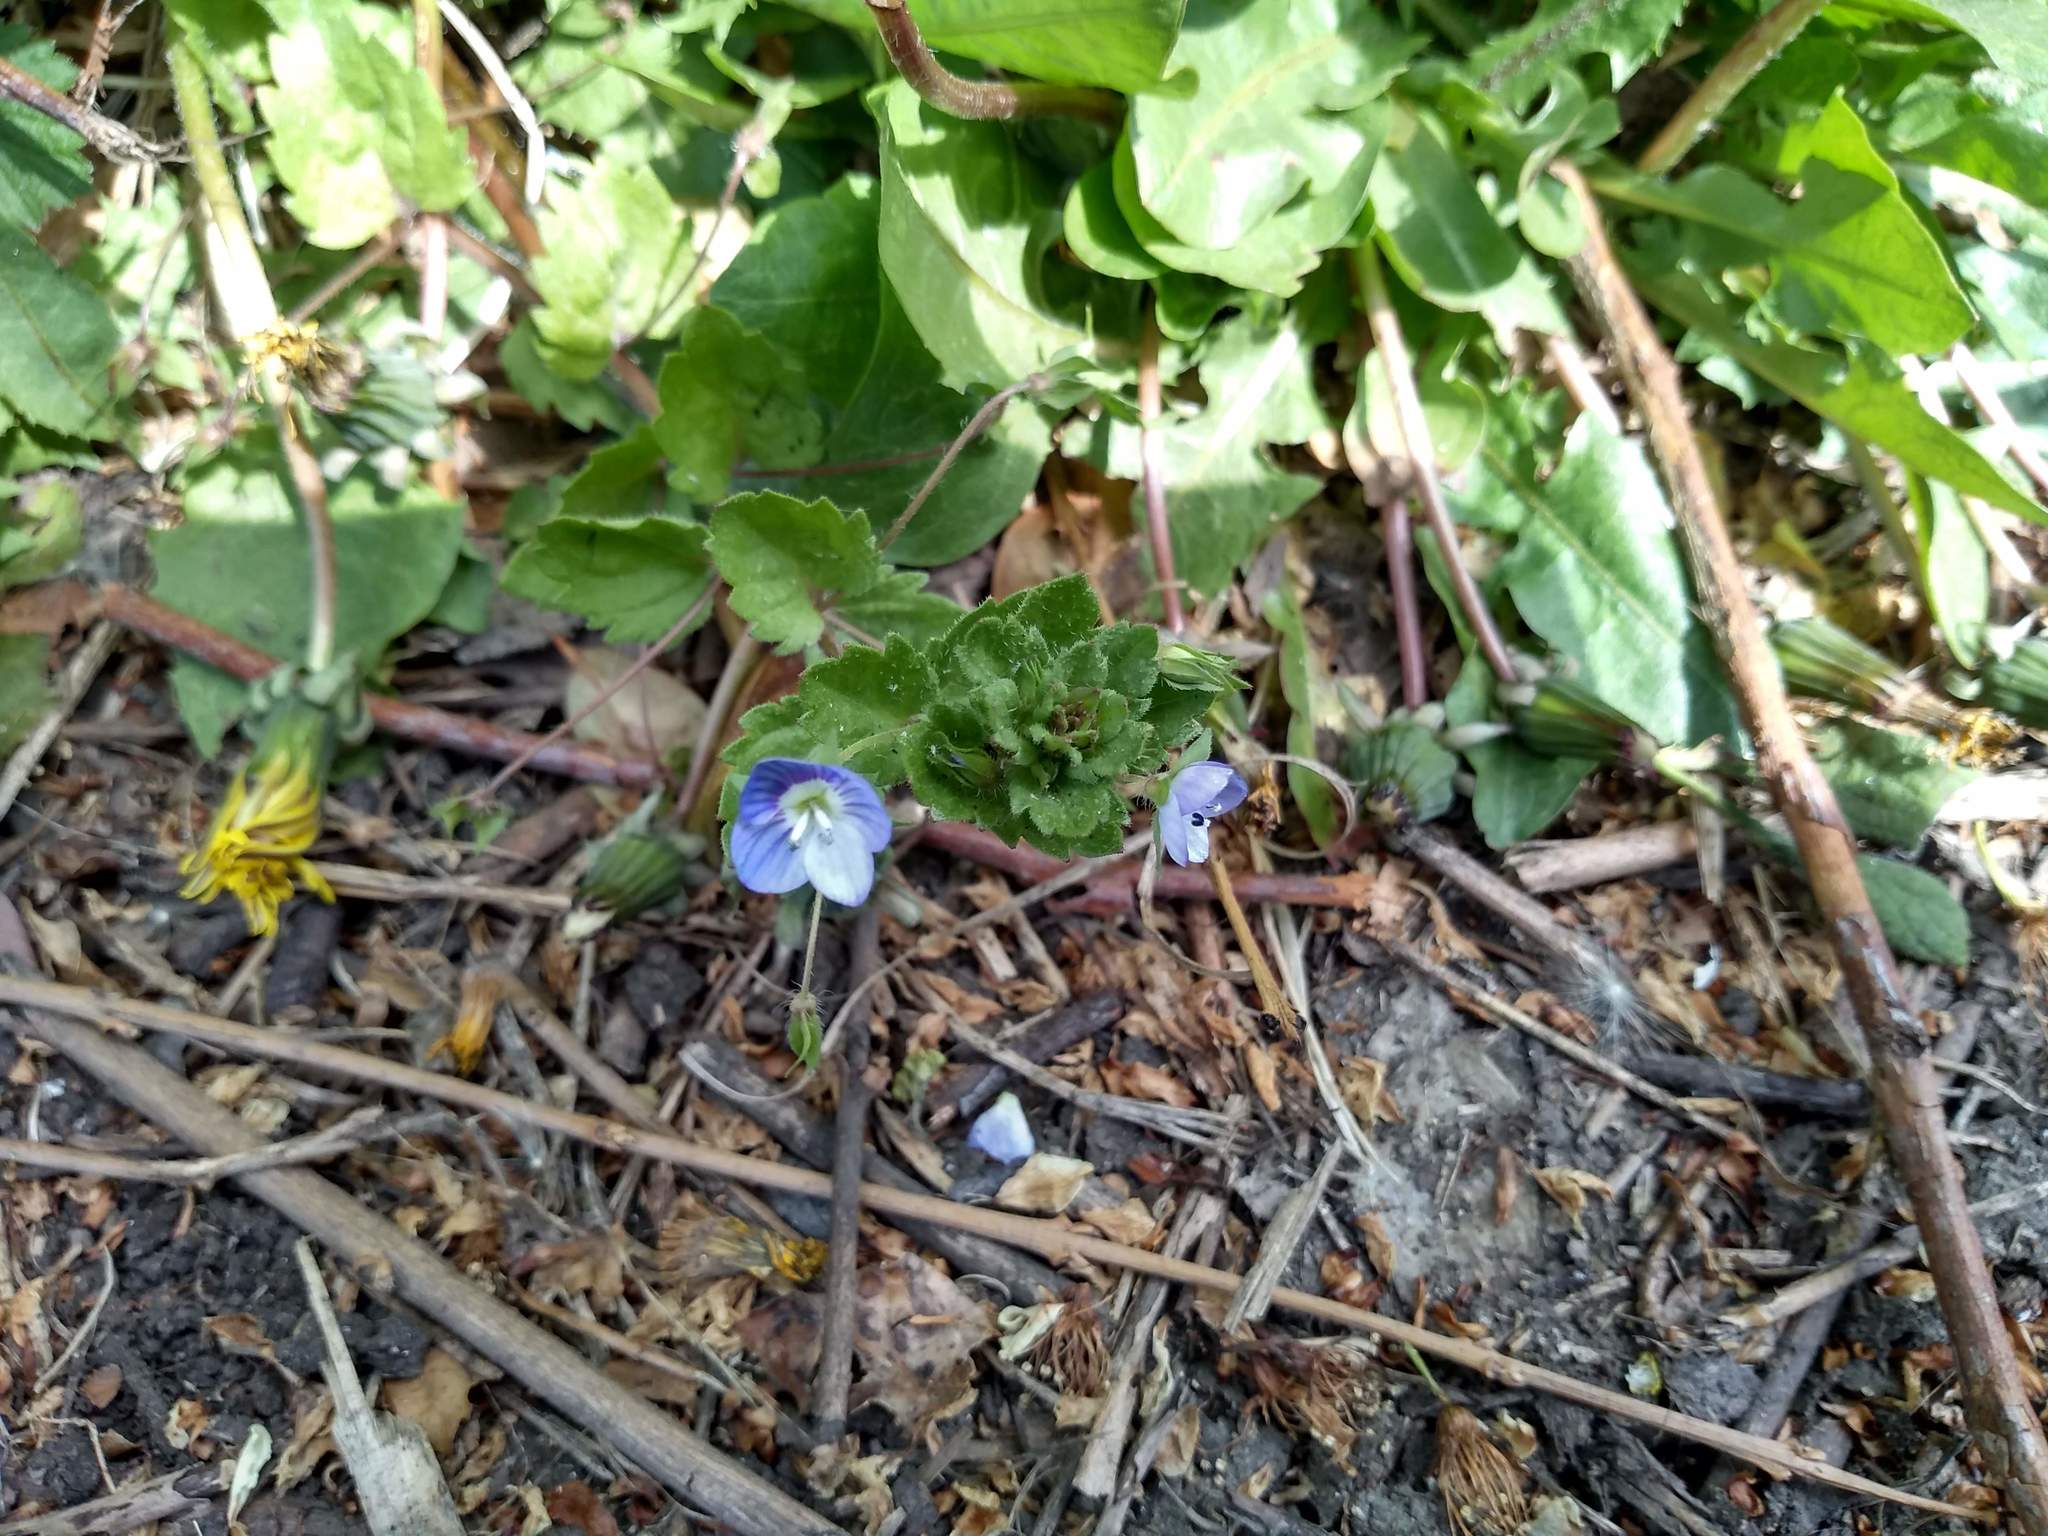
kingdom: Plantae
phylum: Tracheophyta
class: Magnoliopsida
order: Lamiales
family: Plantaginaceae
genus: Veronica
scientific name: Veronica persica
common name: Common field-speedwell
